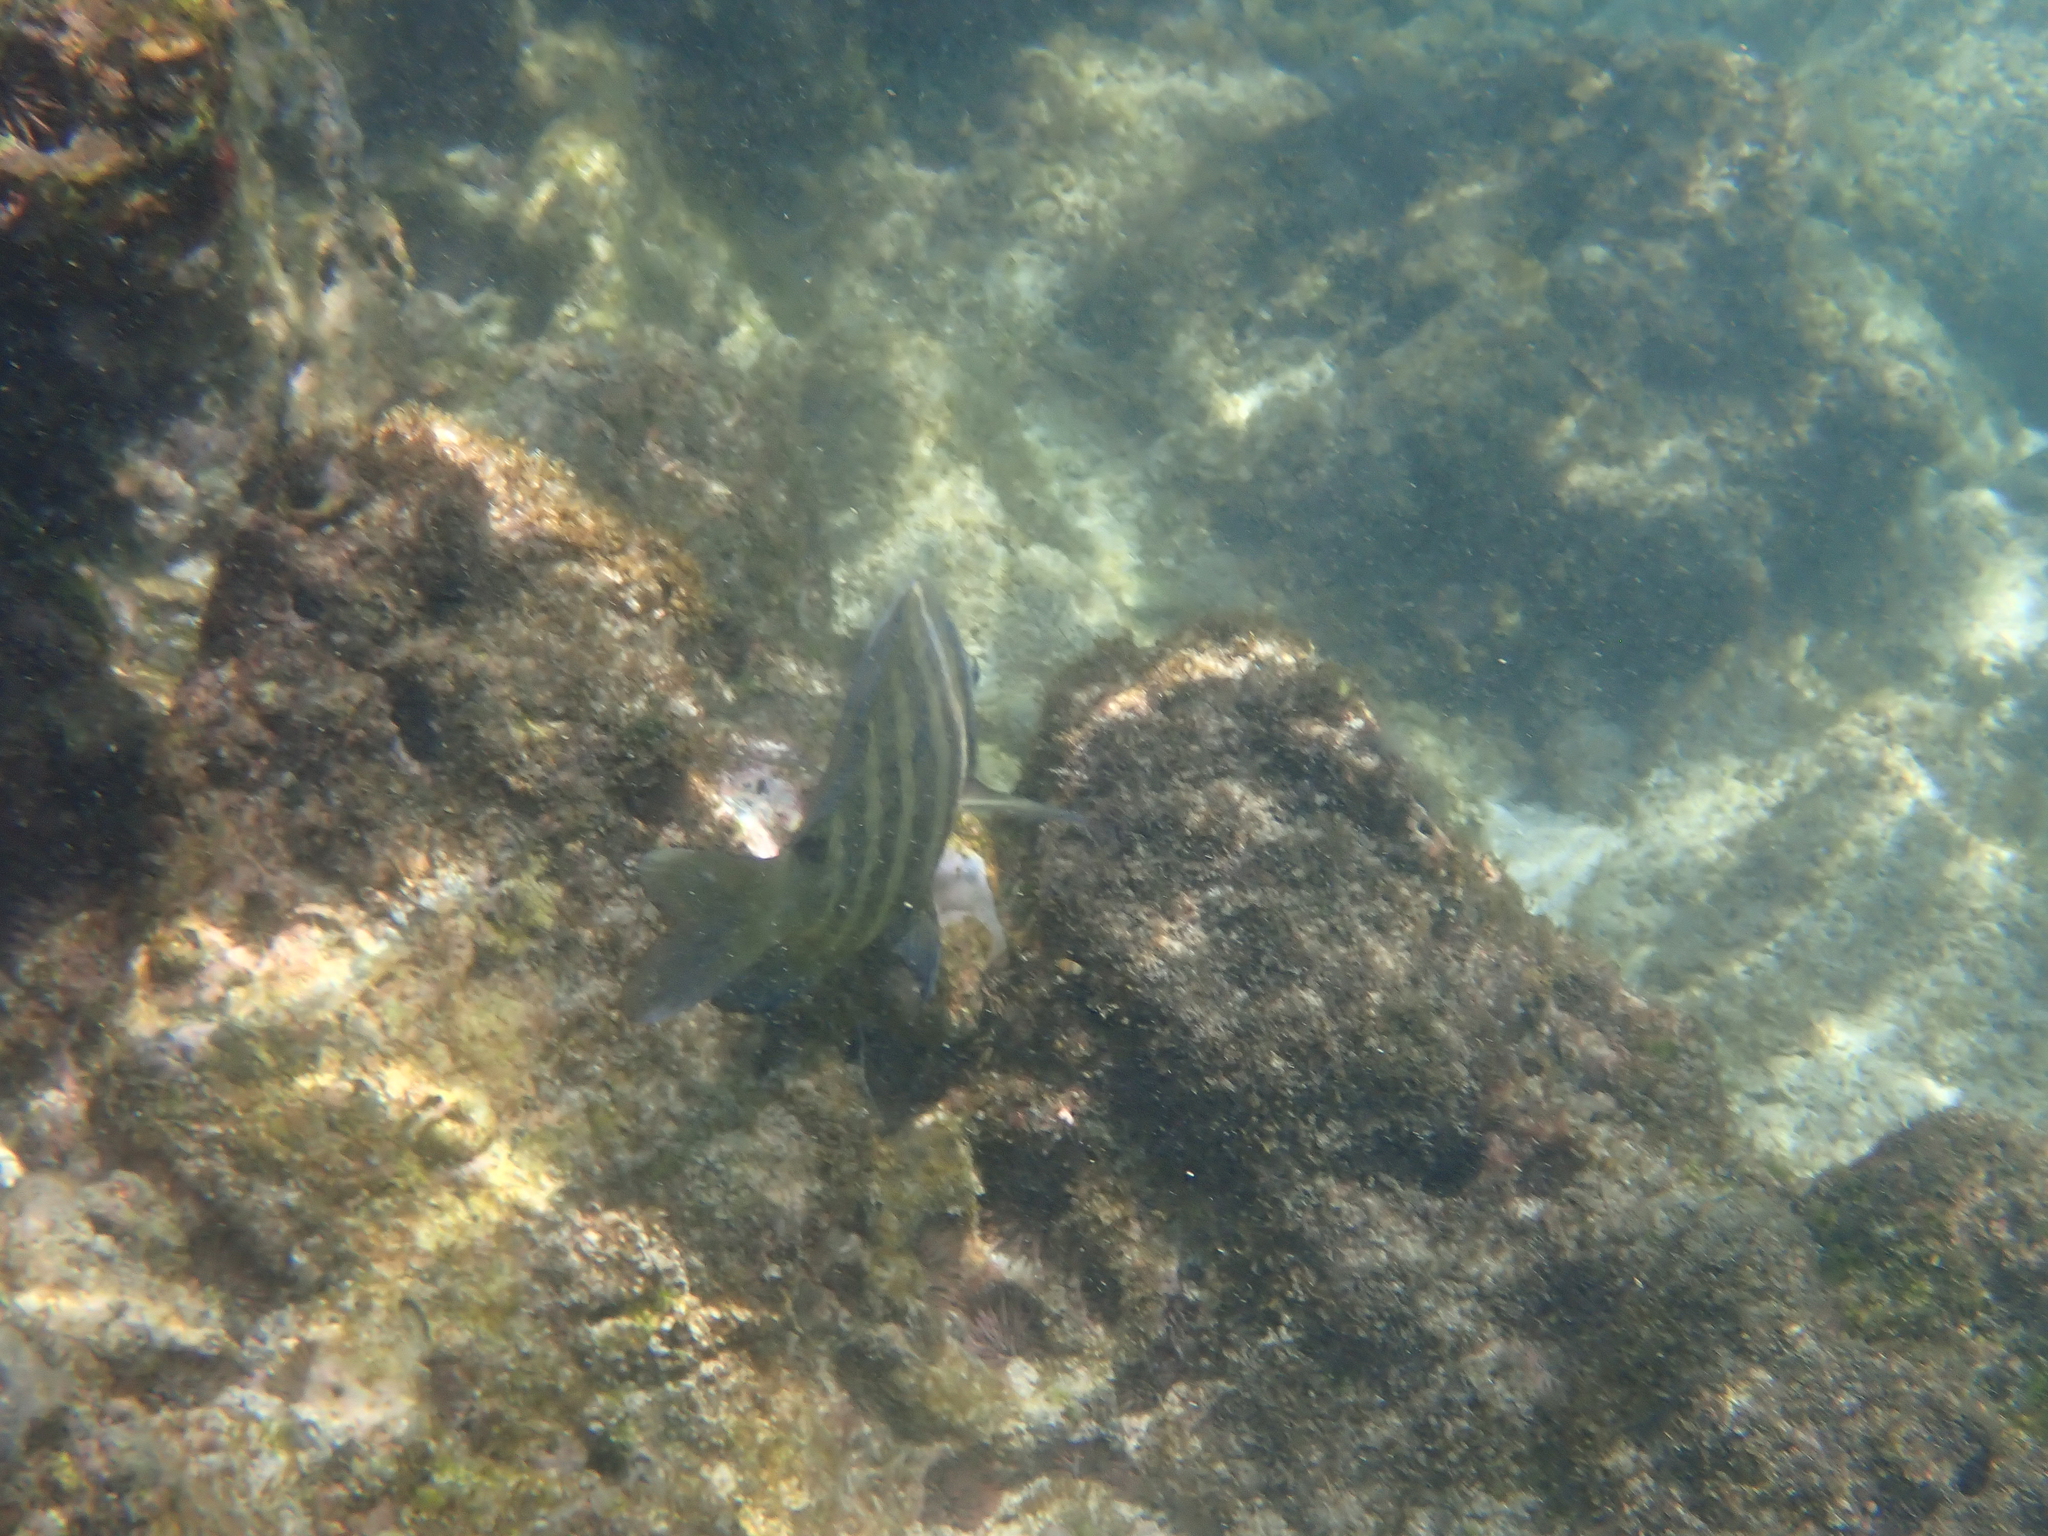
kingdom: Animalia
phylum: Chordata
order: Perciformes
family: Pomacentridae
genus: Abudefduf
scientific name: Abudefduf sordidus
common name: Blackspot sergeant
